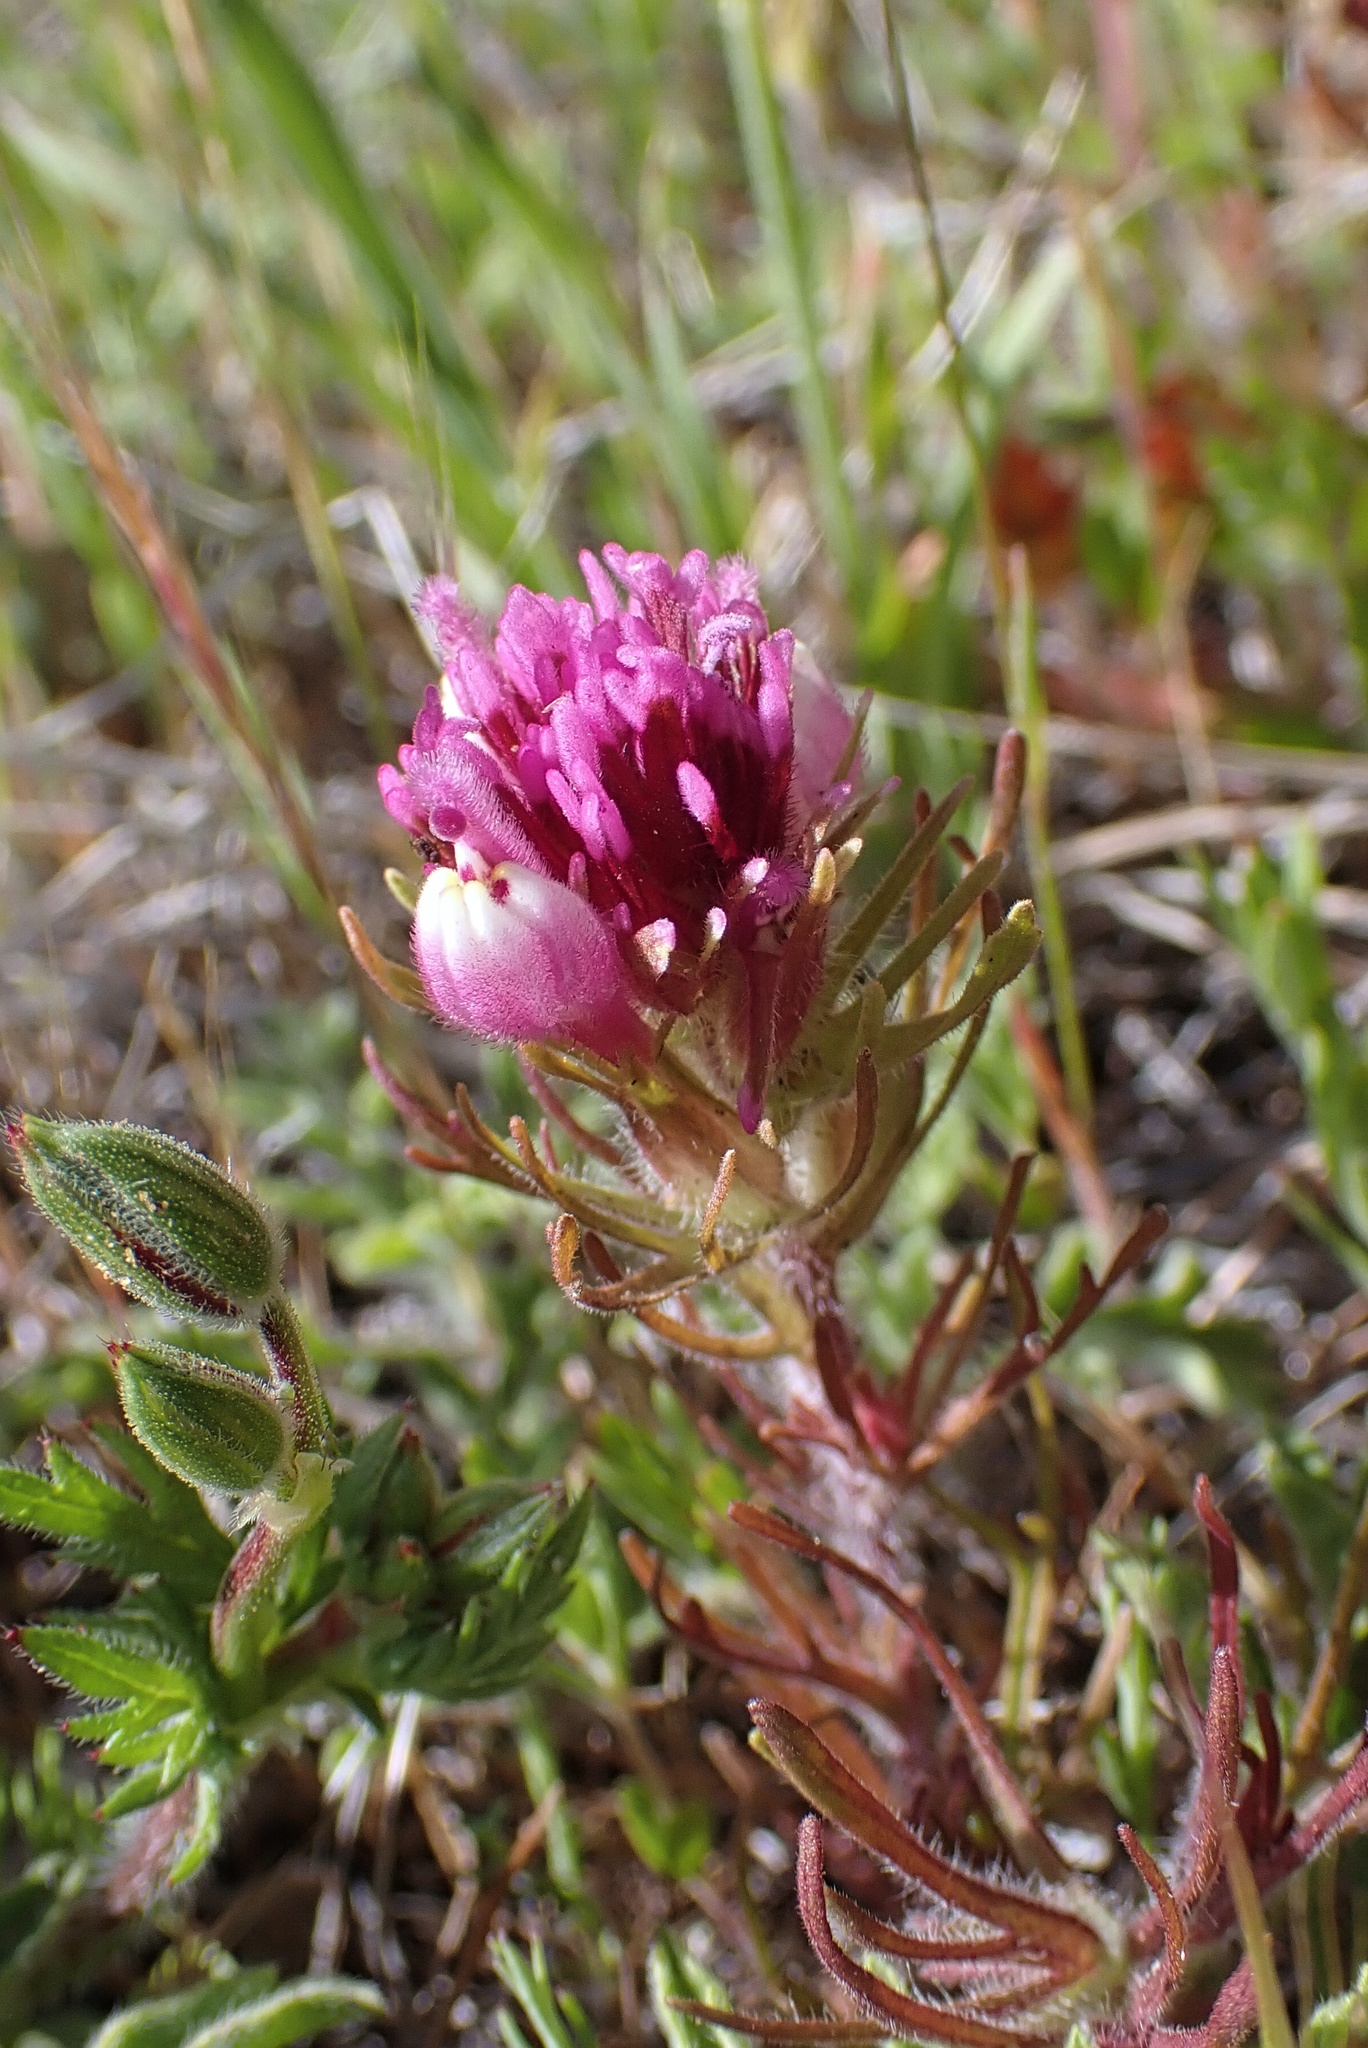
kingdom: Plantae
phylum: Tracheophyta
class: Magnoliopsida
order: Lamiales
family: Orobanchaceae
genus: Castilleja
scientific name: Castilleja exserta
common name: Purple owl-clover
